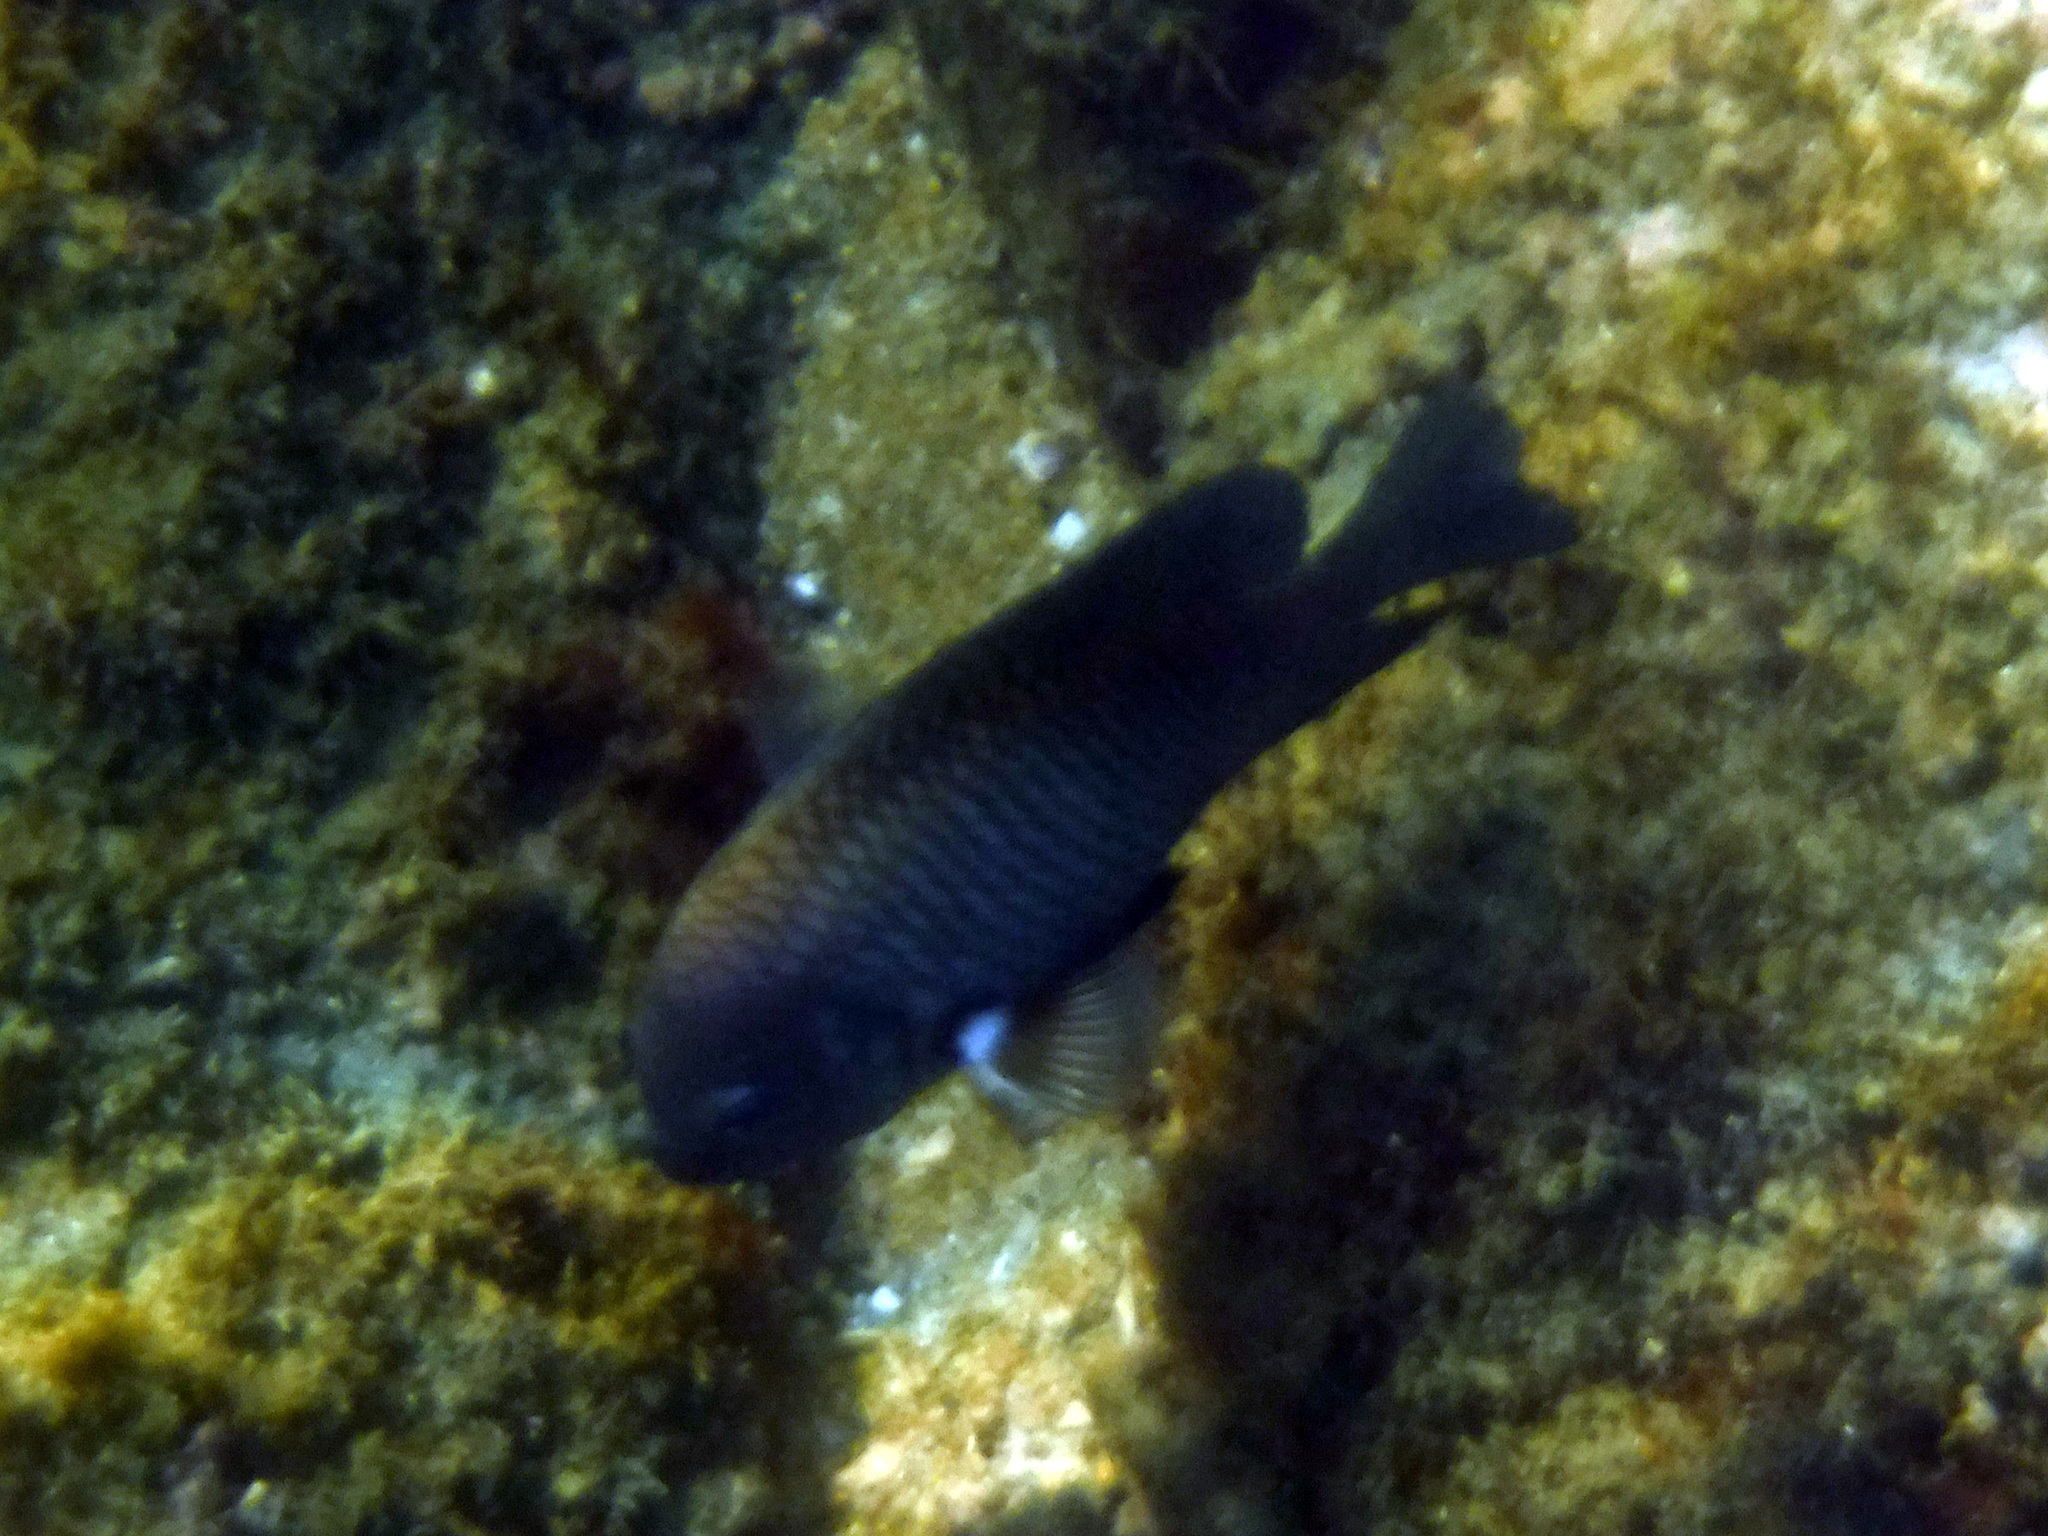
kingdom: Animalia
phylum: Chordata
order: Perciformes
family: Pomacentridae
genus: Stegastes
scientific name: Stegastes acapulcoensis
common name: Acapulco damselfish
